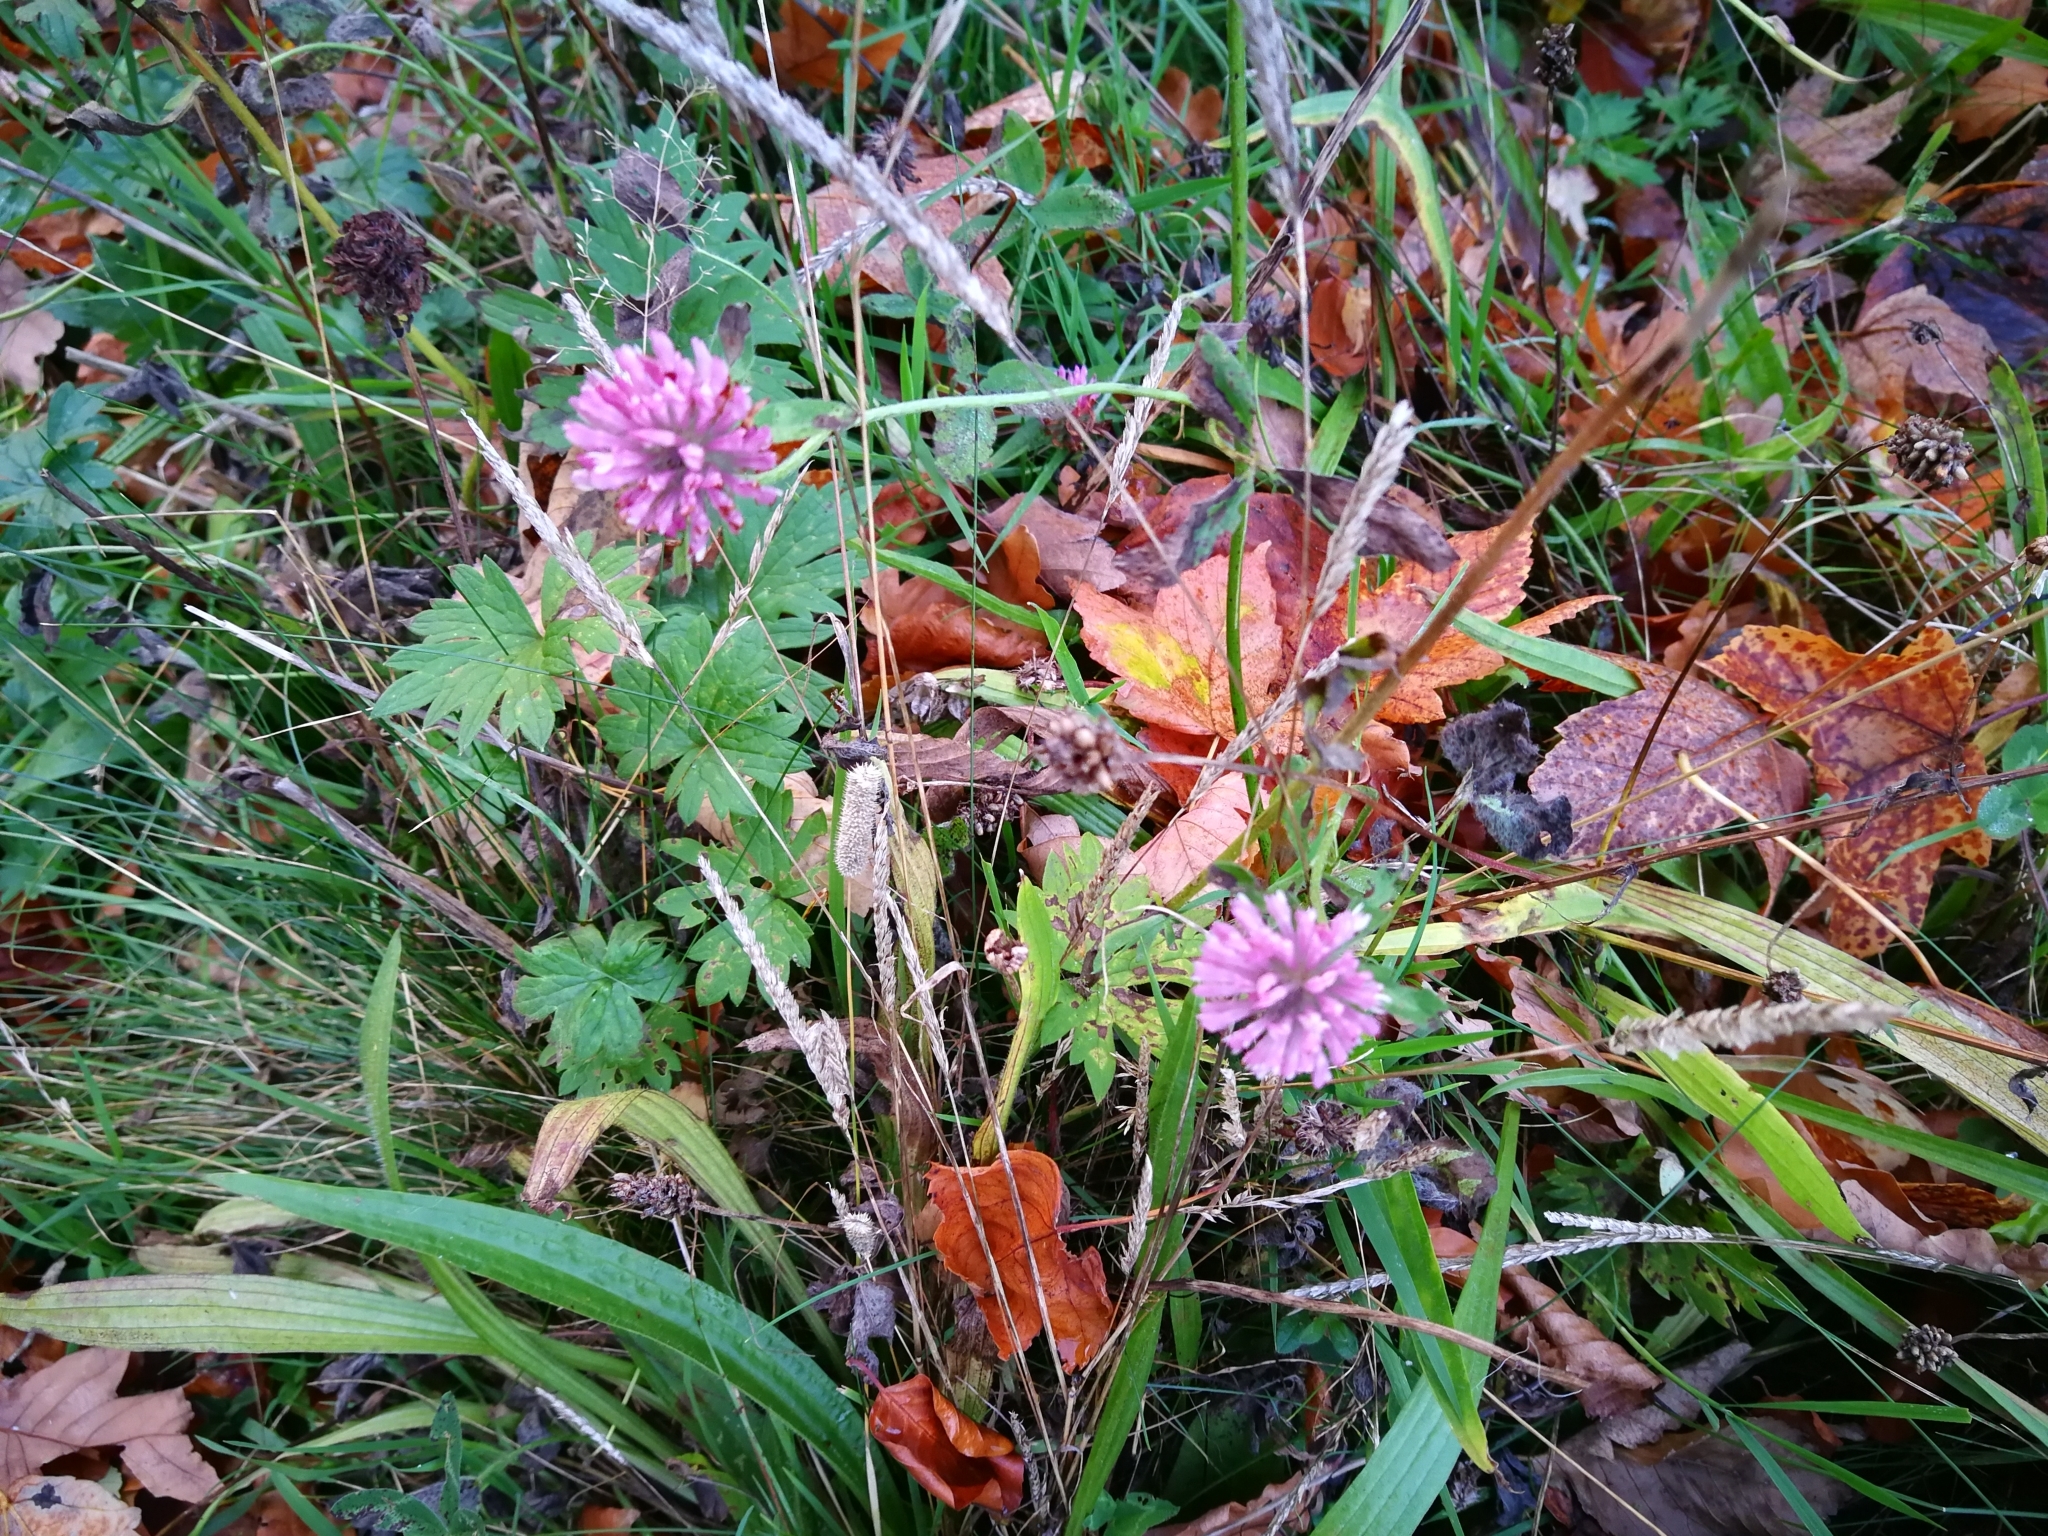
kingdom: Plantae
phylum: Tracheophyta
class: Magnoliopsida
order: Fabales
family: Fabaceae
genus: Trifolium
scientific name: Trifolium pratense
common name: Red clover
